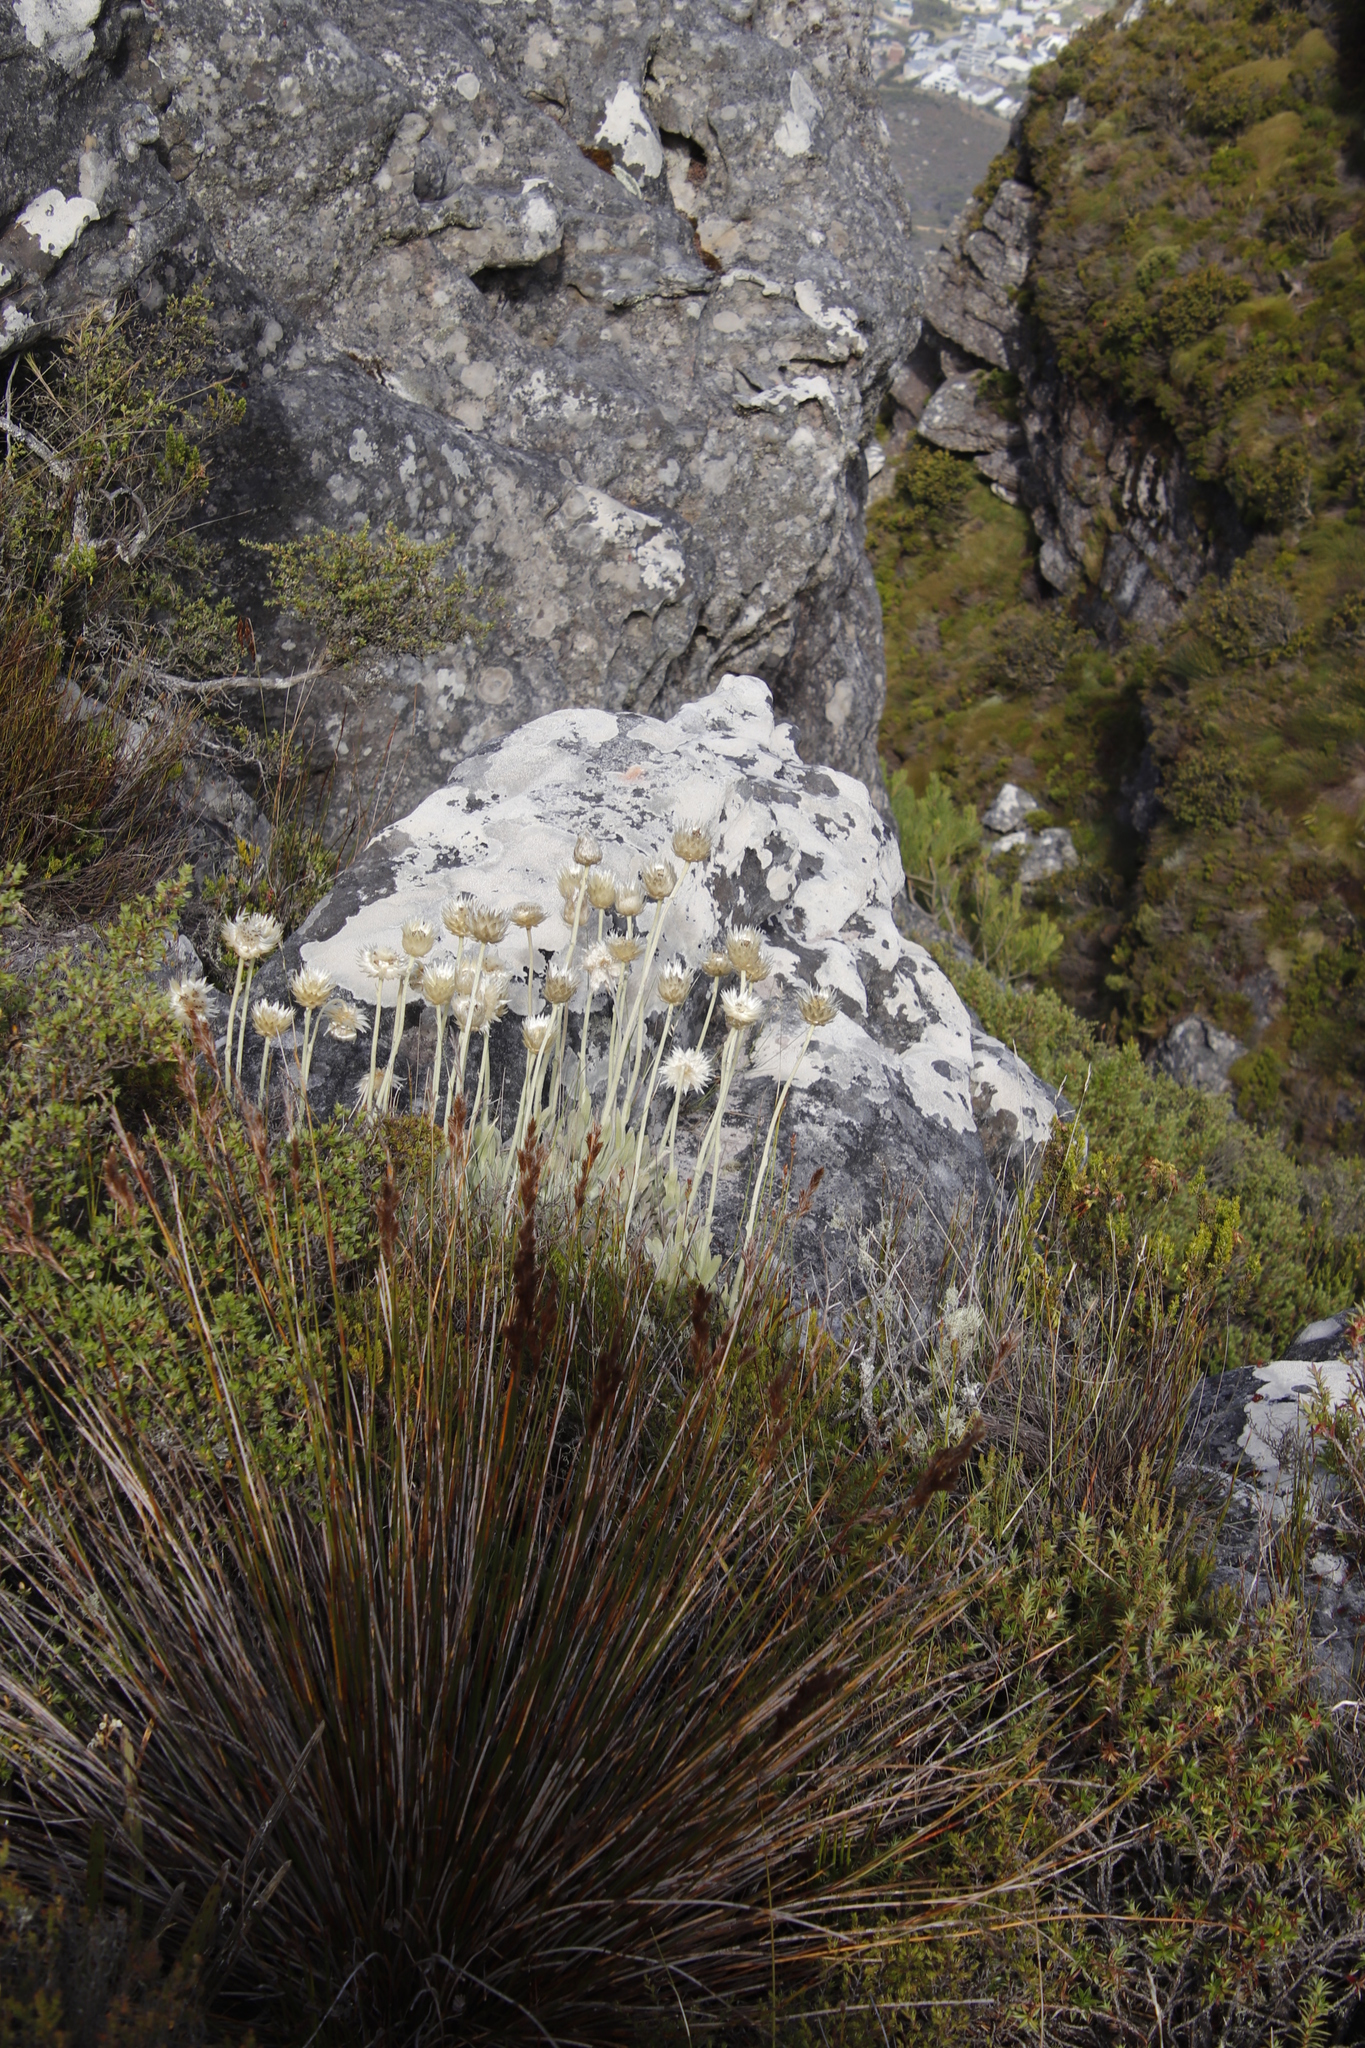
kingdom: Plantae
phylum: Tracheophyta
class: Magnoliopsida
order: Asterales
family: Asteraceae
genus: Syncarpha
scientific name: Syncarpha speciosissima
